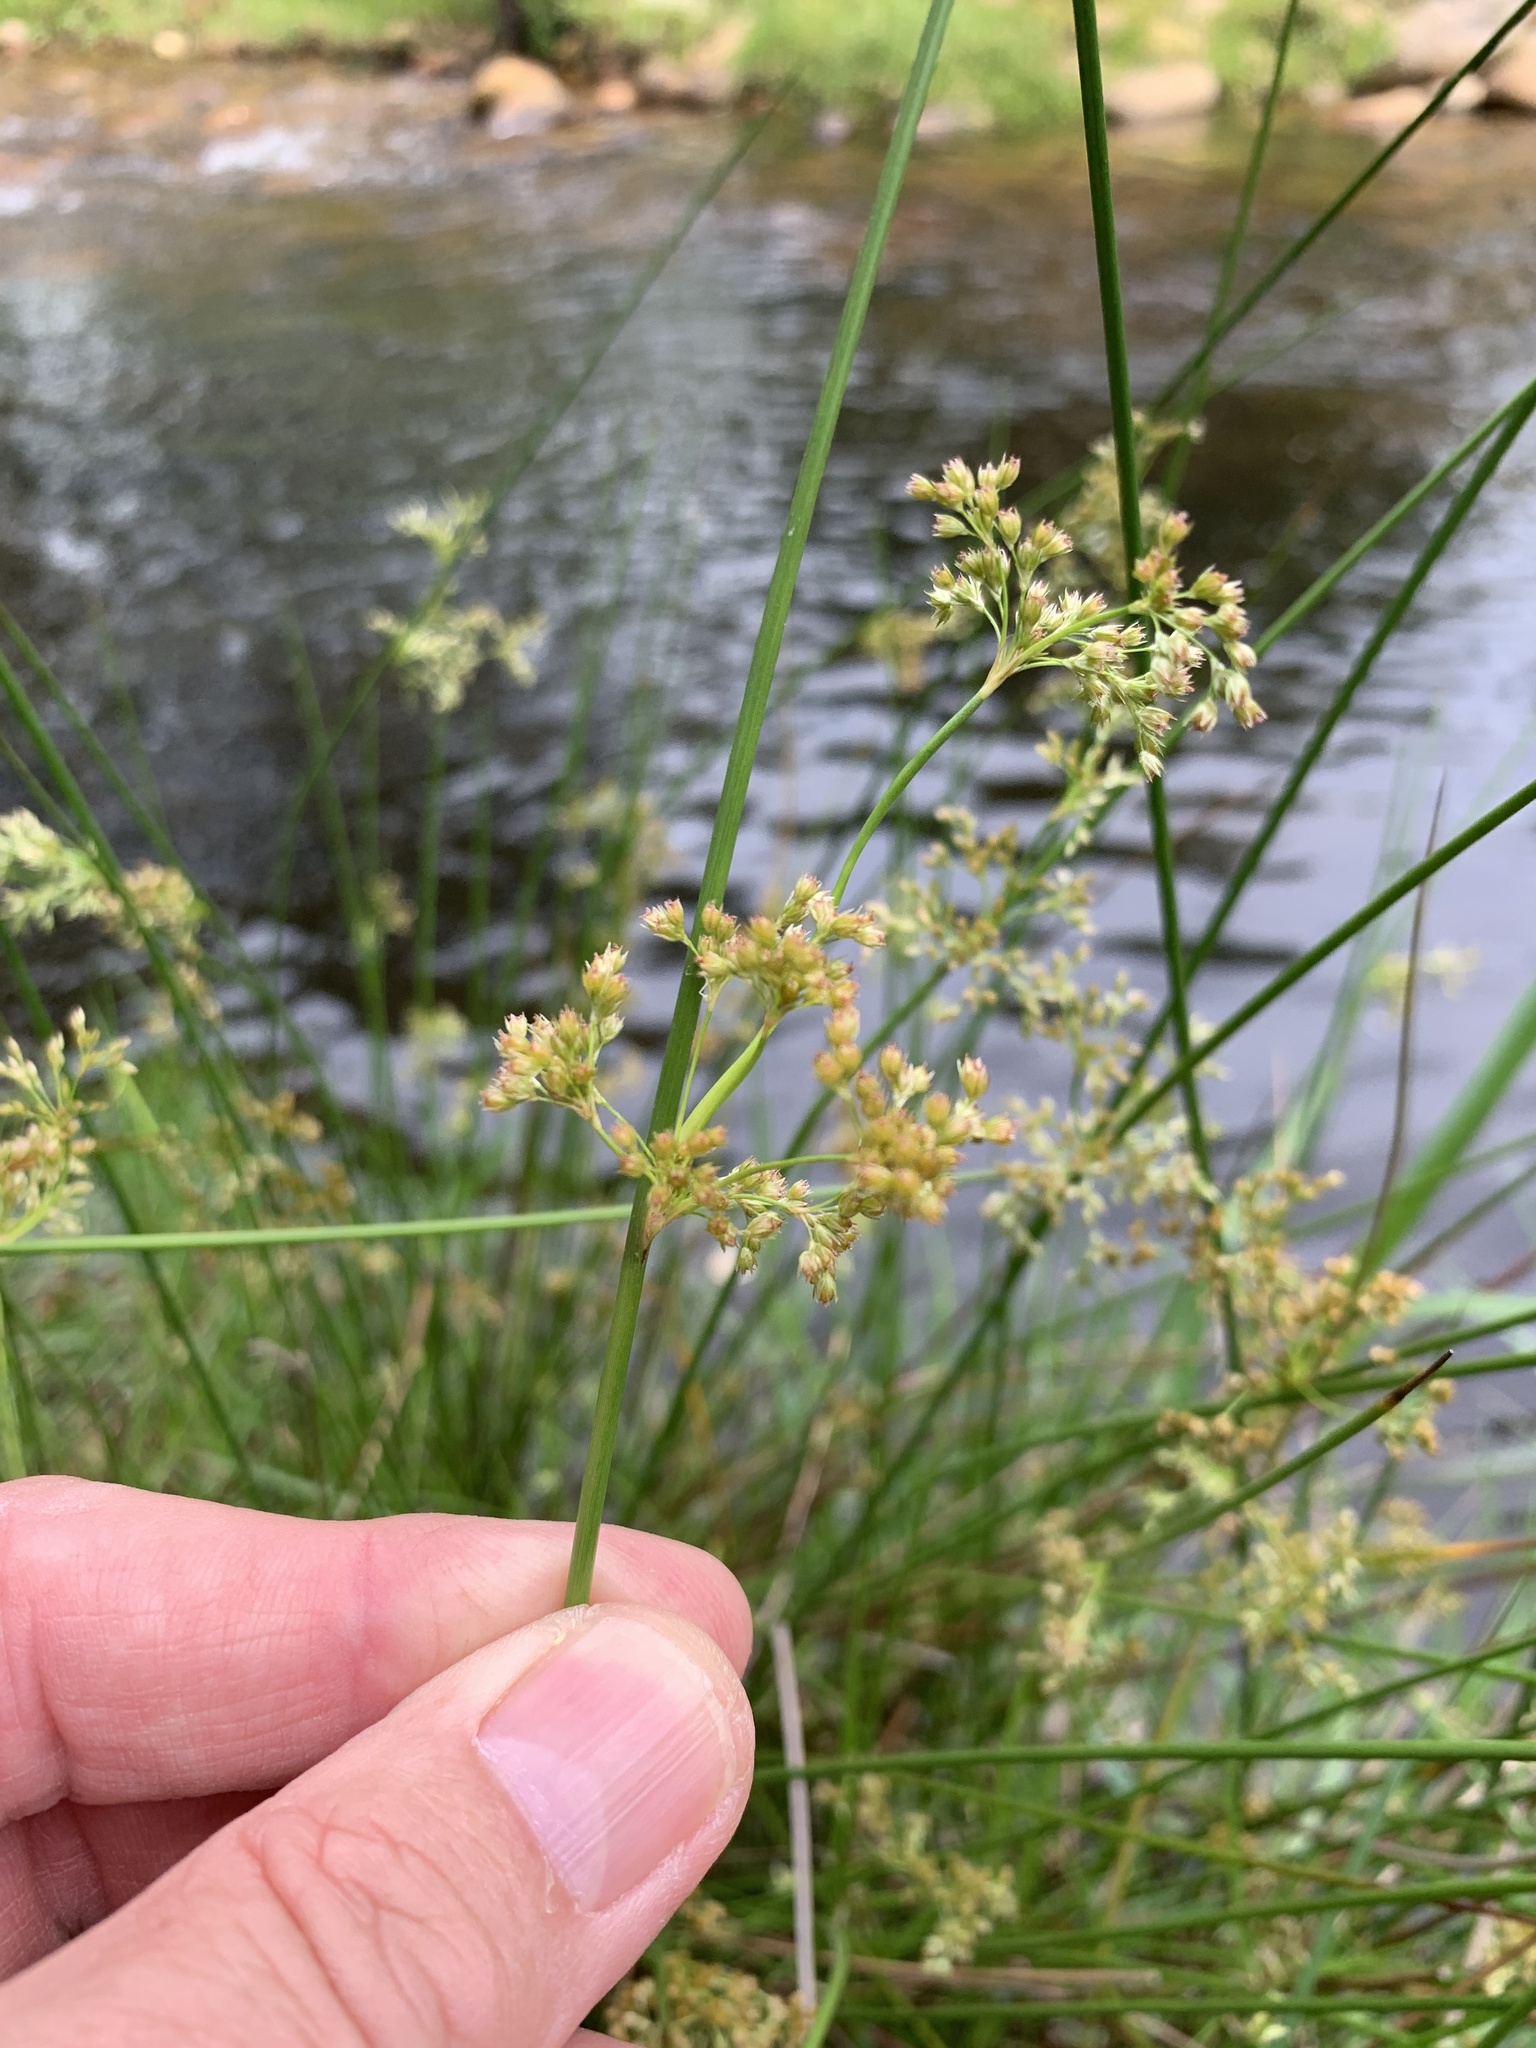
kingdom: Plantae
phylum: Tracheophyta
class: Liliopsida
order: Poales
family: Juncaceae
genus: Juncus
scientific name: Juncus effusus
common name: Soft rush
